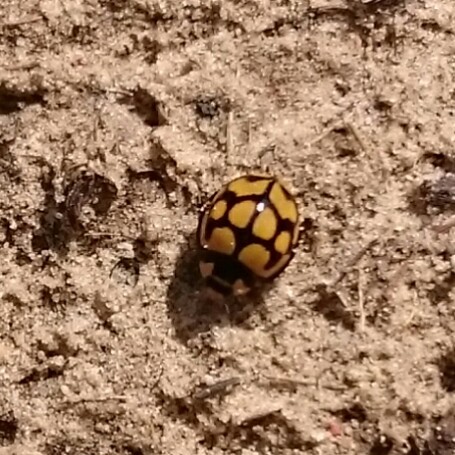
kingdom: Animalia
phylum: Arthropoda
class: Insecta
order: Coleoptera
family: Coccinellidae
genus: Cheilomenes
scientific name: Cheilomenes lunata
